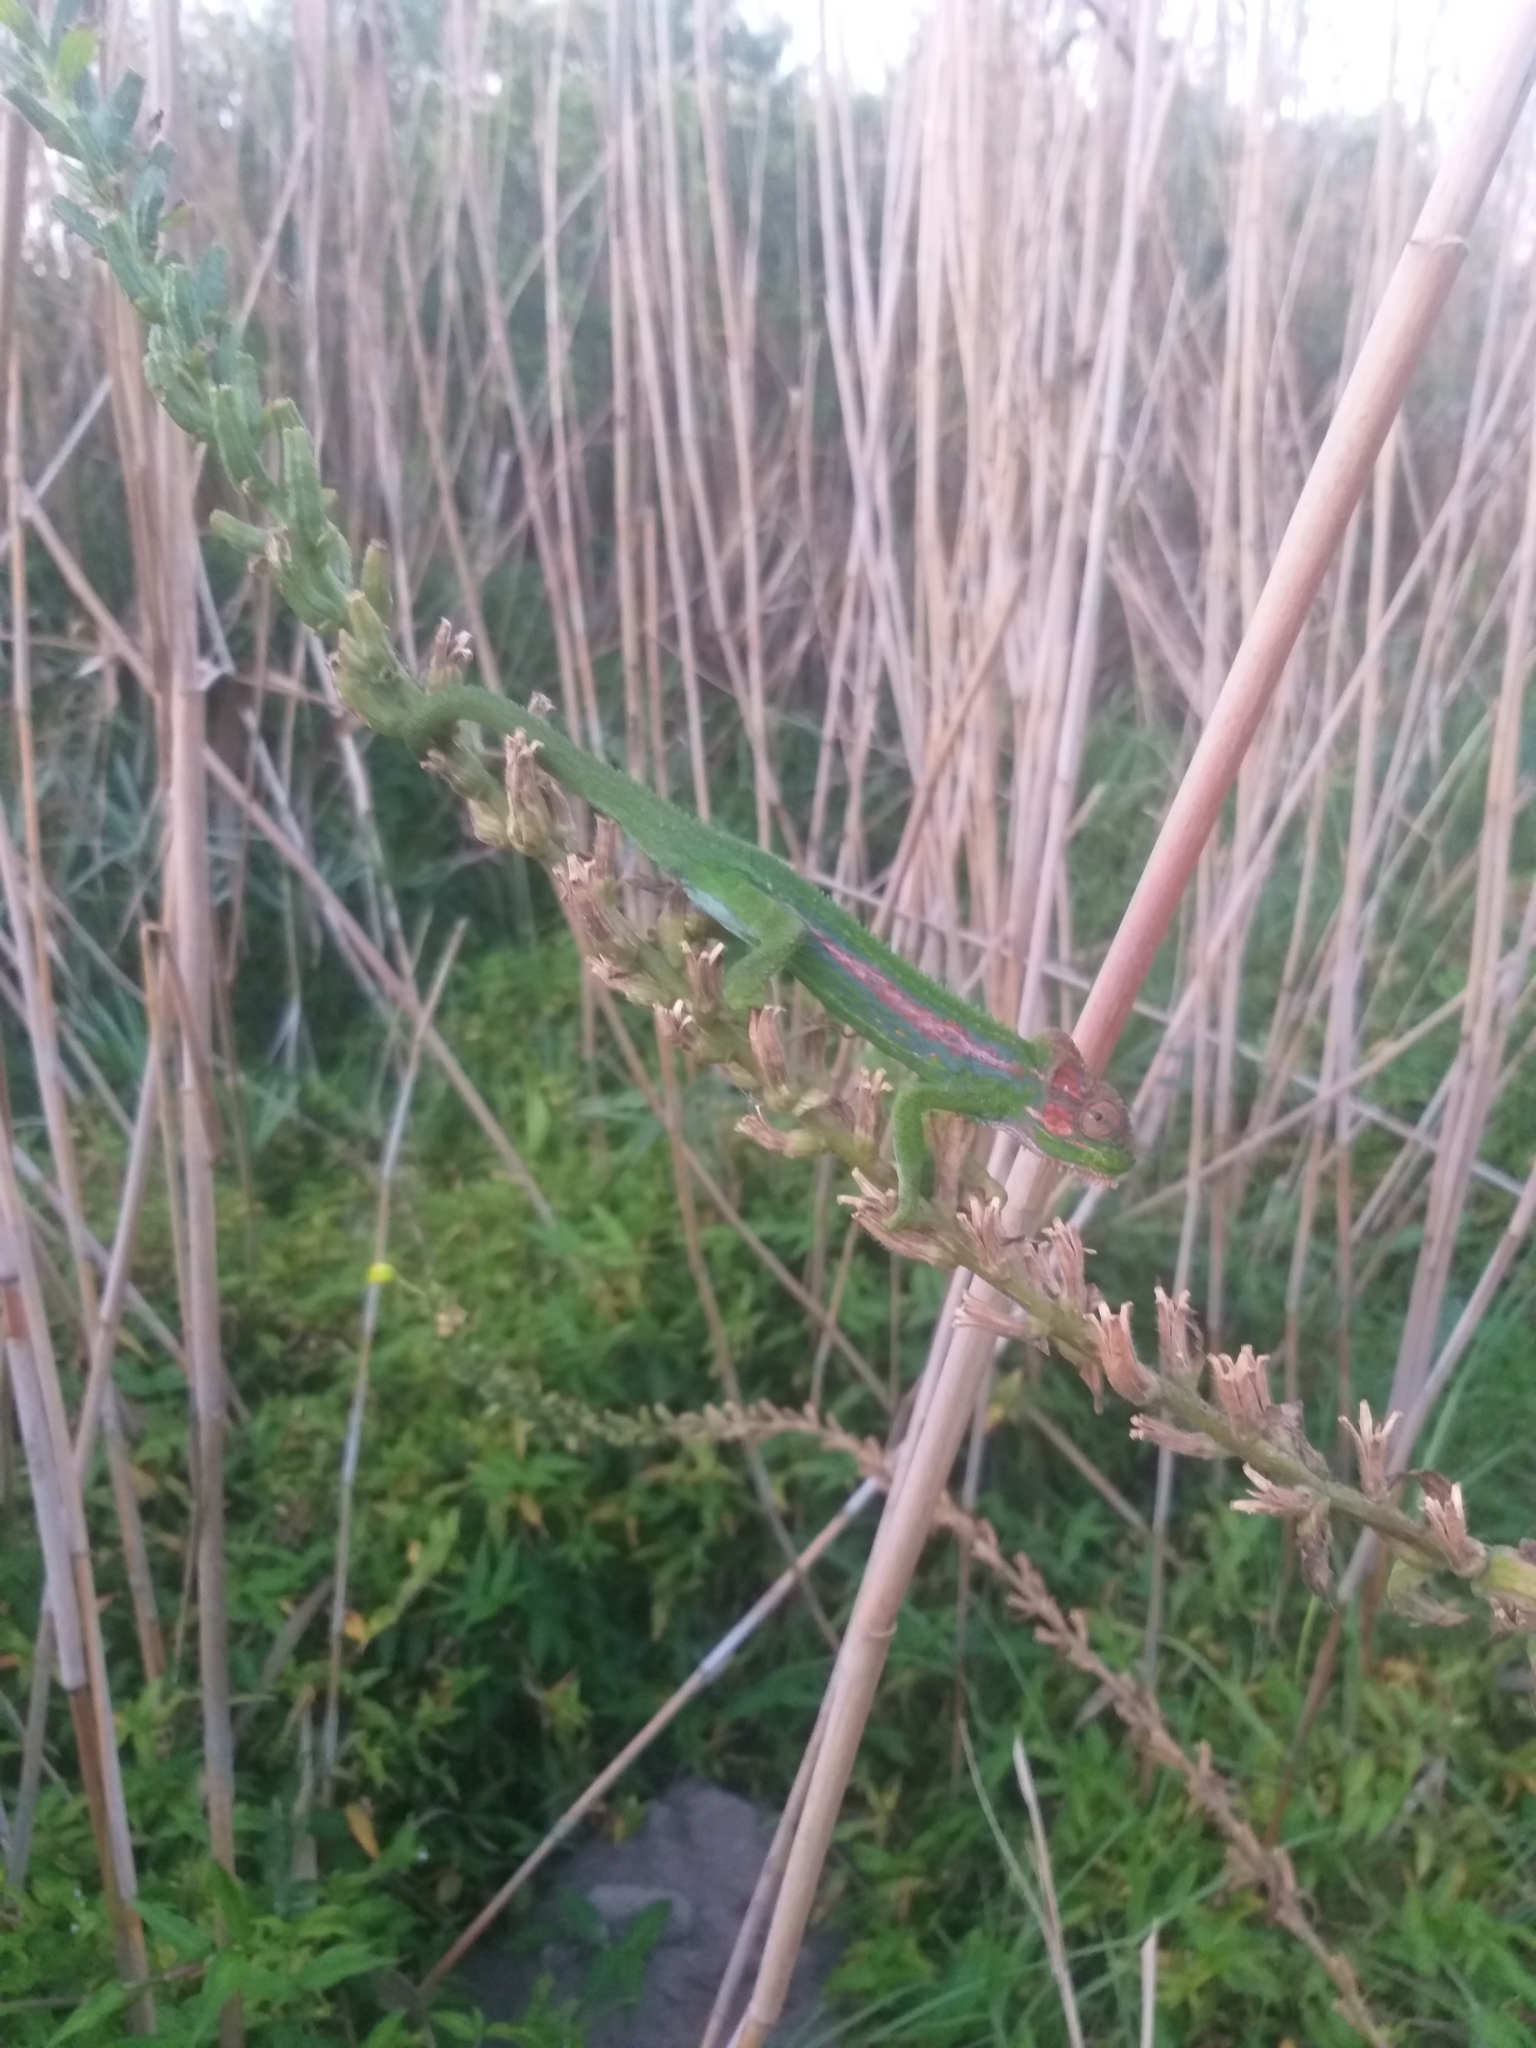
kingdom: Animalia
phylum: Chordata
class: Squamata
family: Chamaeleonidae
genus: Bradypodion
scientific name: Bradypodion pumilum
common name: Cape dwarf chameleon
